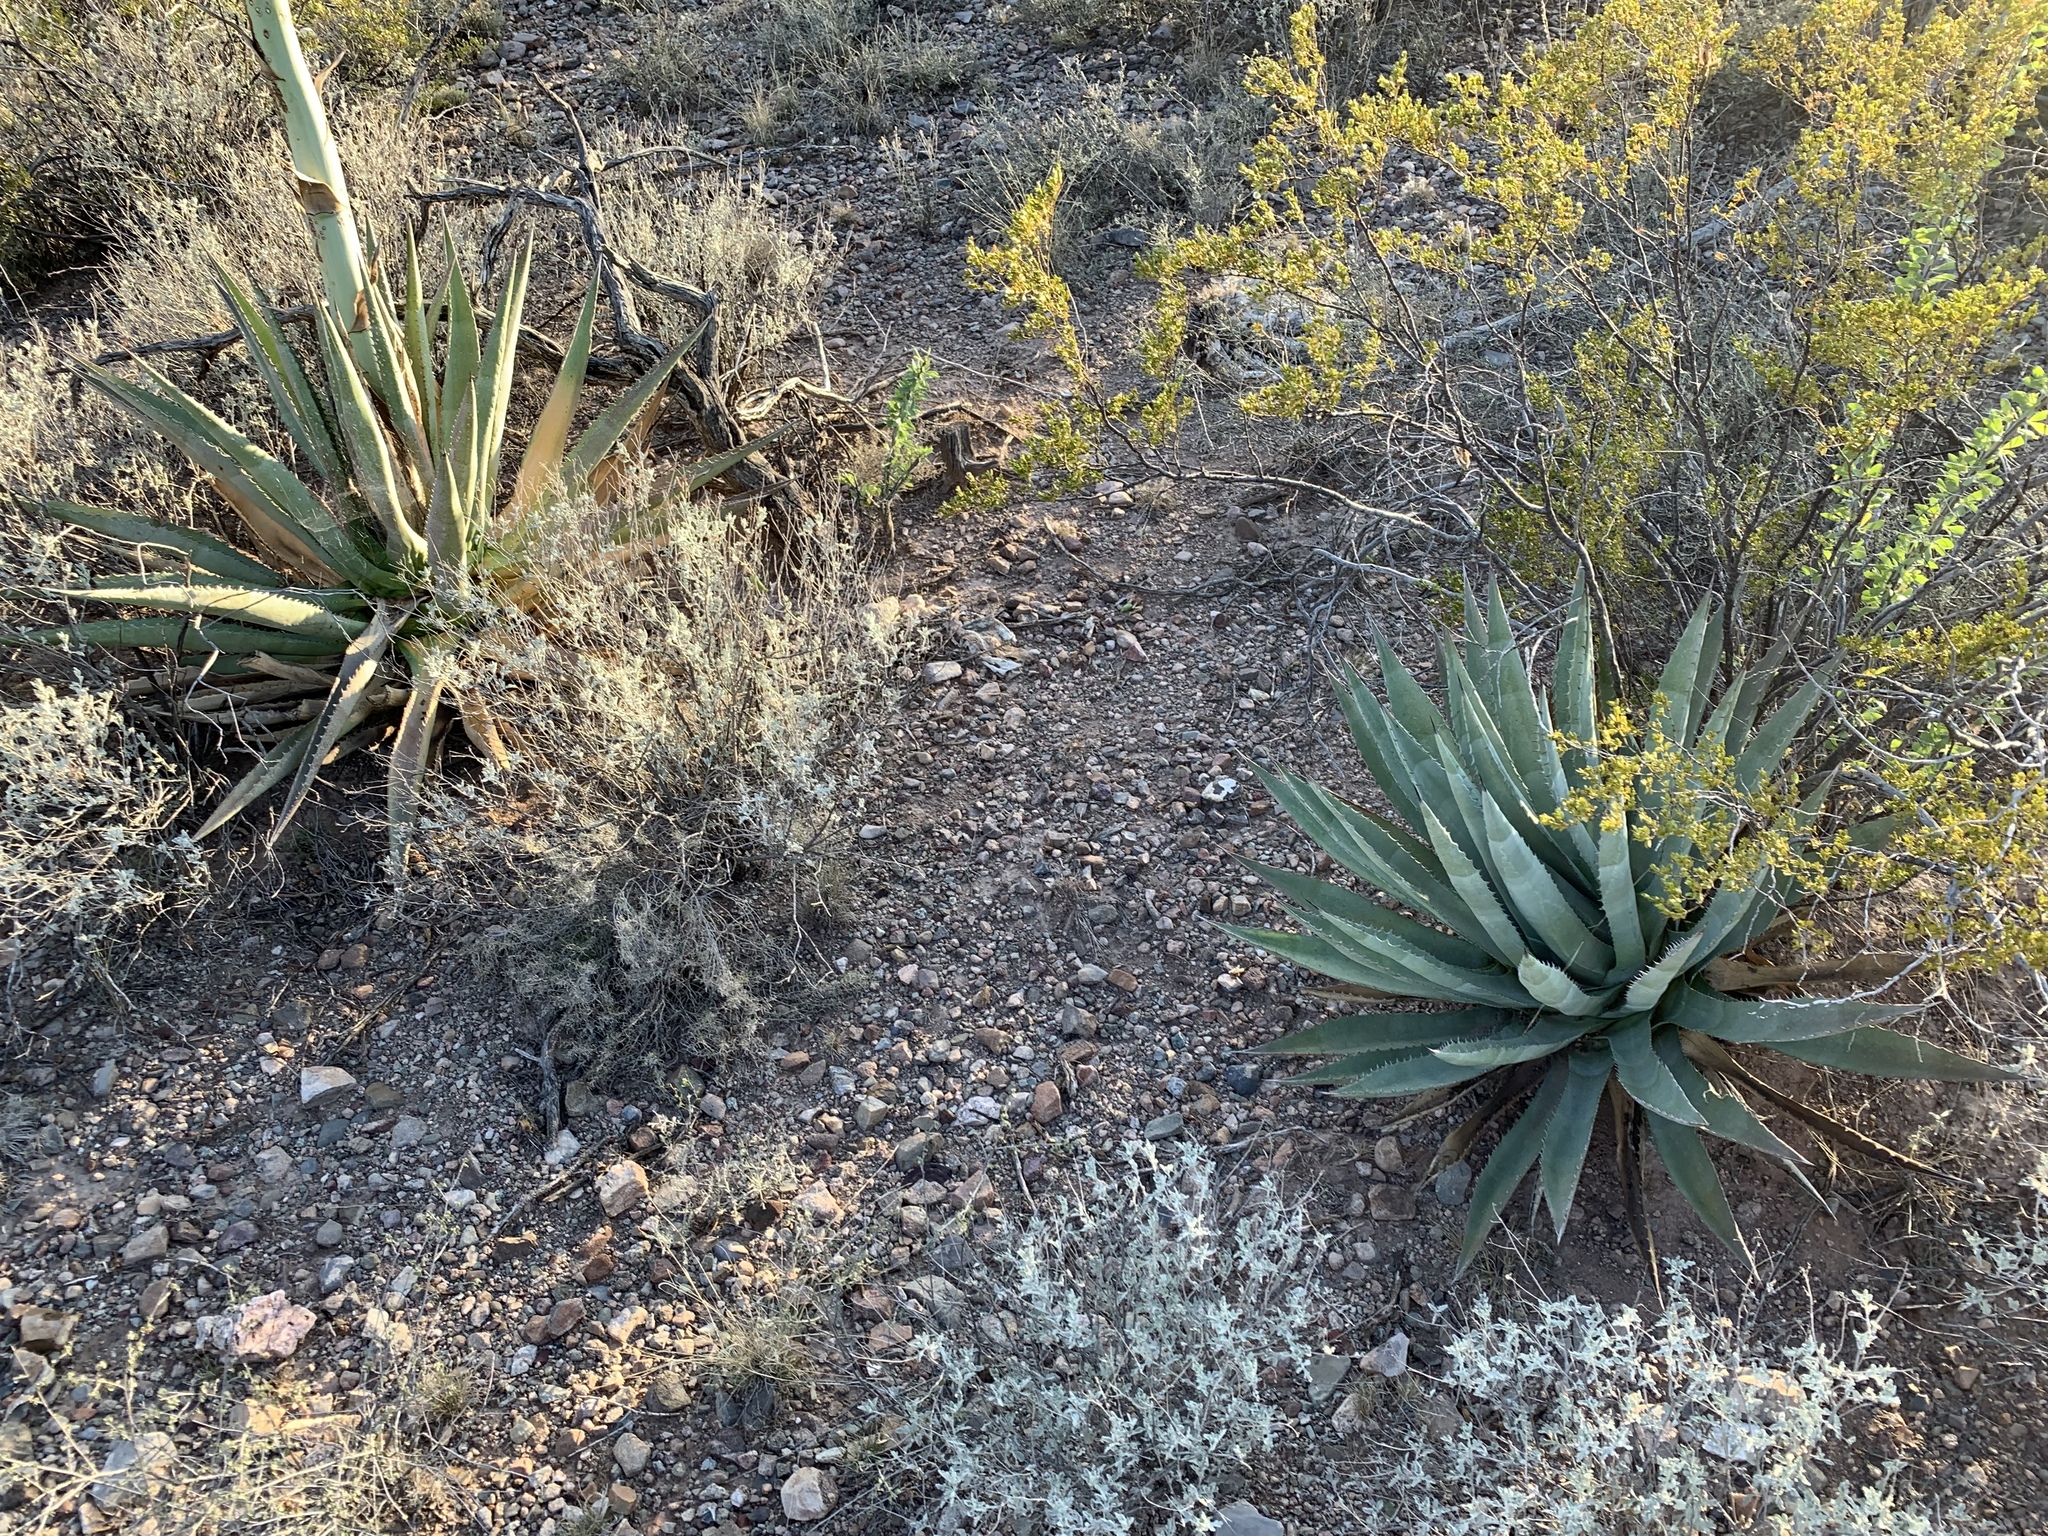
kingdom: Plantae
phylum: Tracheophyta
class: Liliopsida
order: Asparagales
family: Asparagaceae
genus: Agave
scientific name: Agave palmeri
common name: Palmer agave
